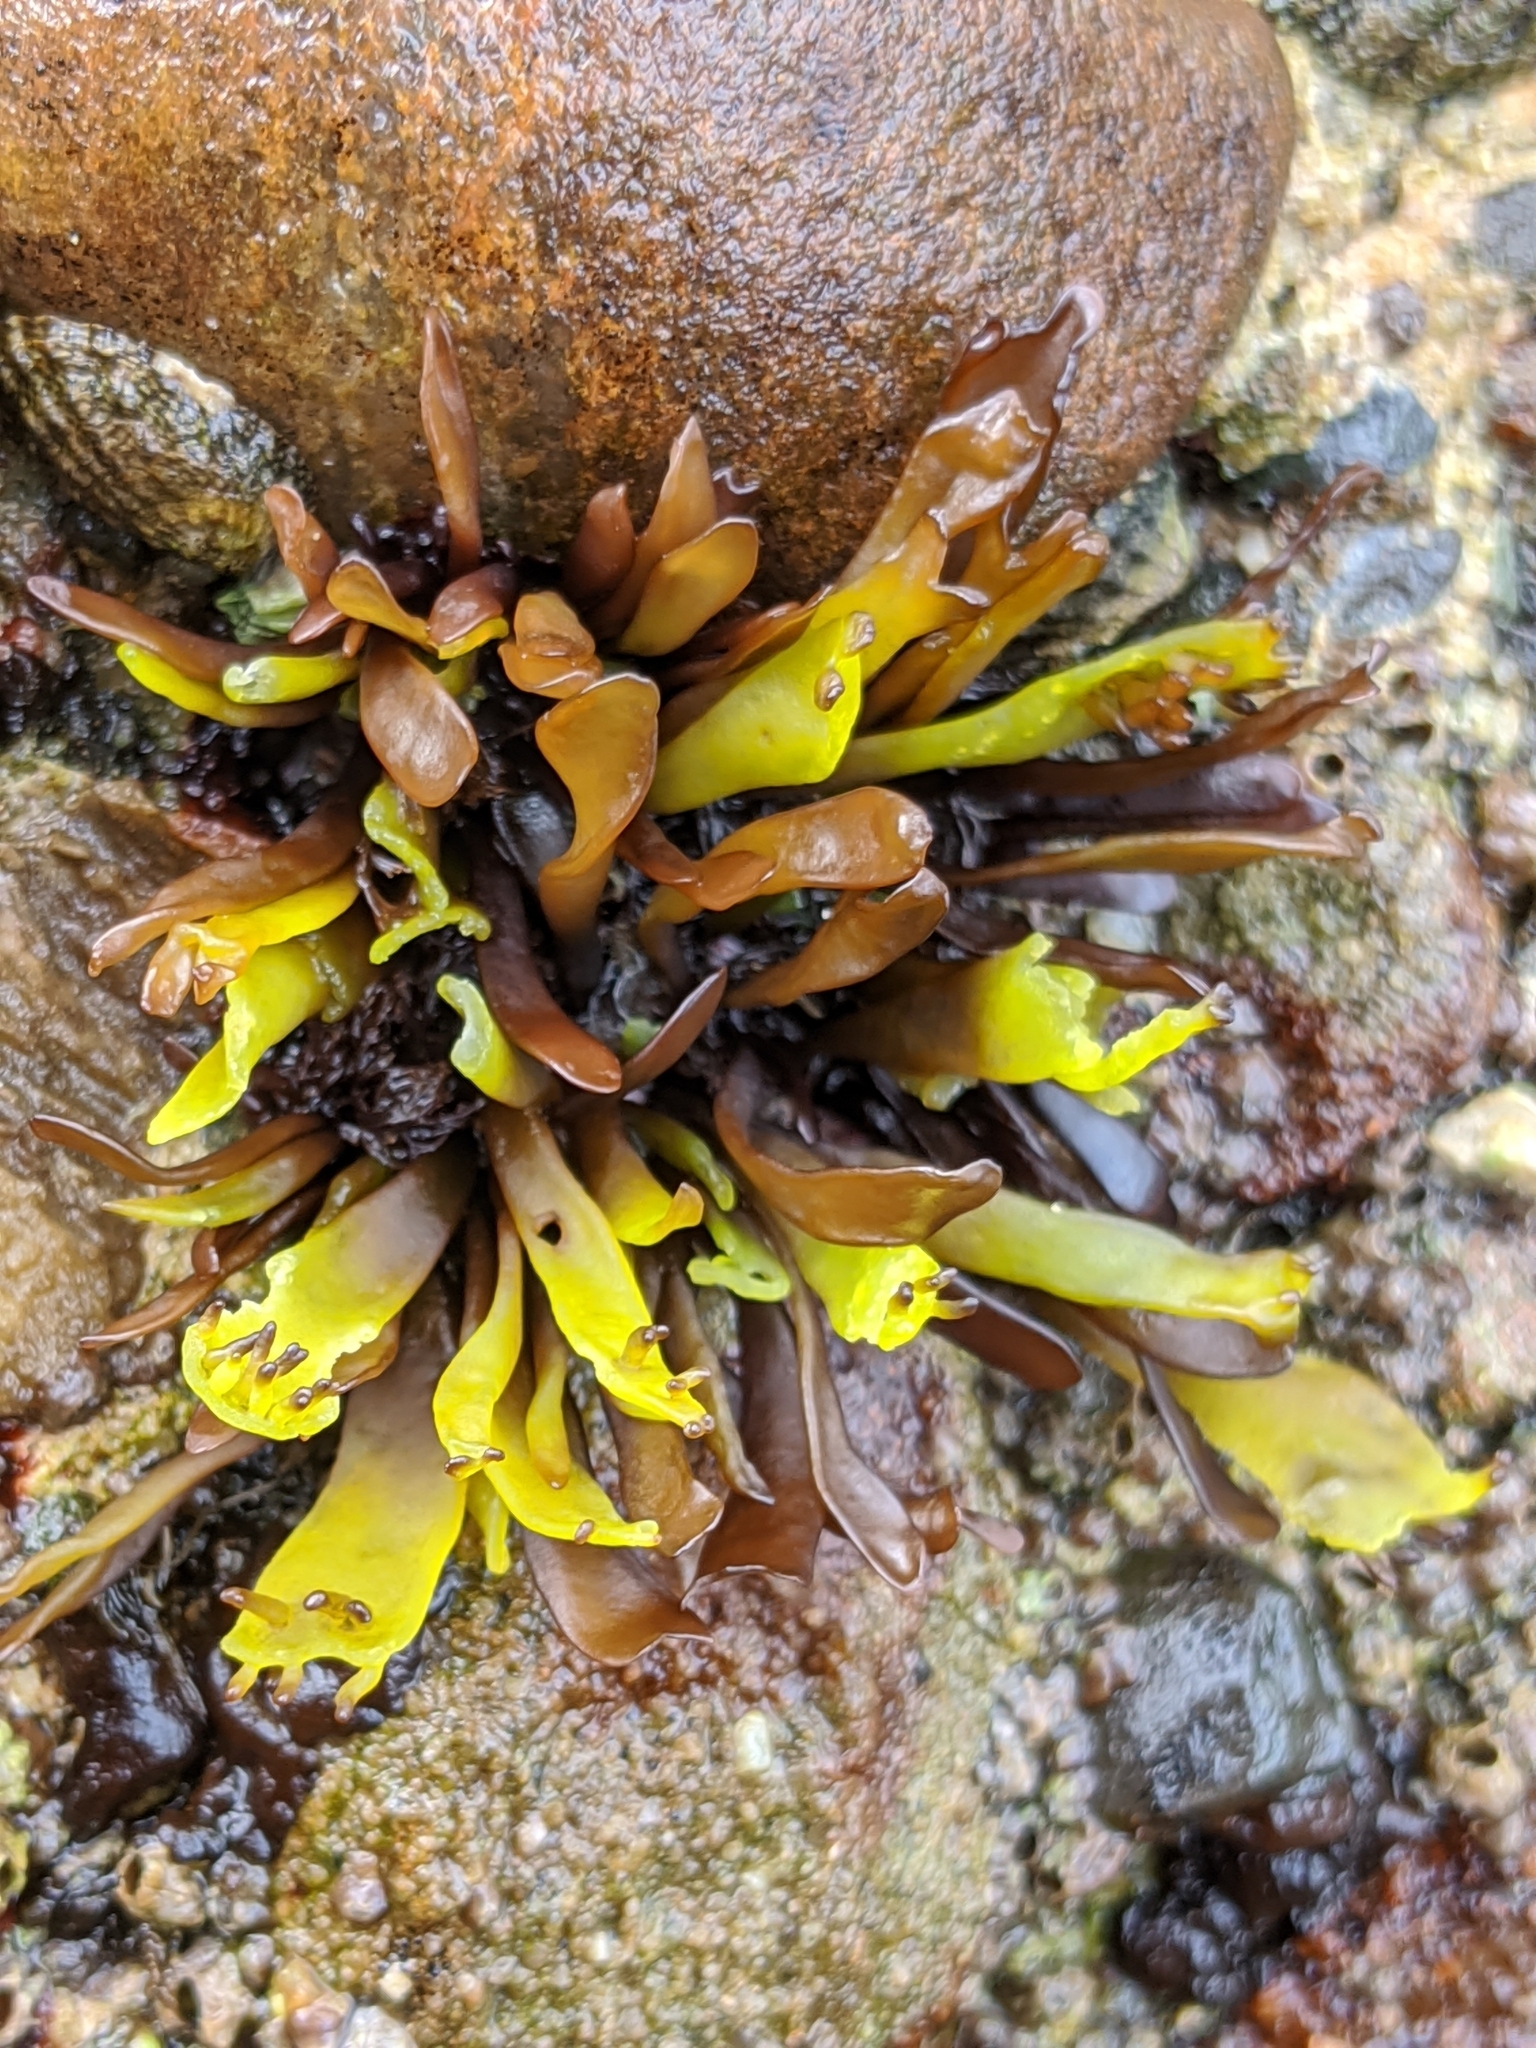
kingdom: Plantae
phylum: Rhodophyta
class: Florideophyceae
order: Gigartinales
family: Phyllophoraceae
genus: Mastocarpus
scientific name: Mastocarpus papillatus
